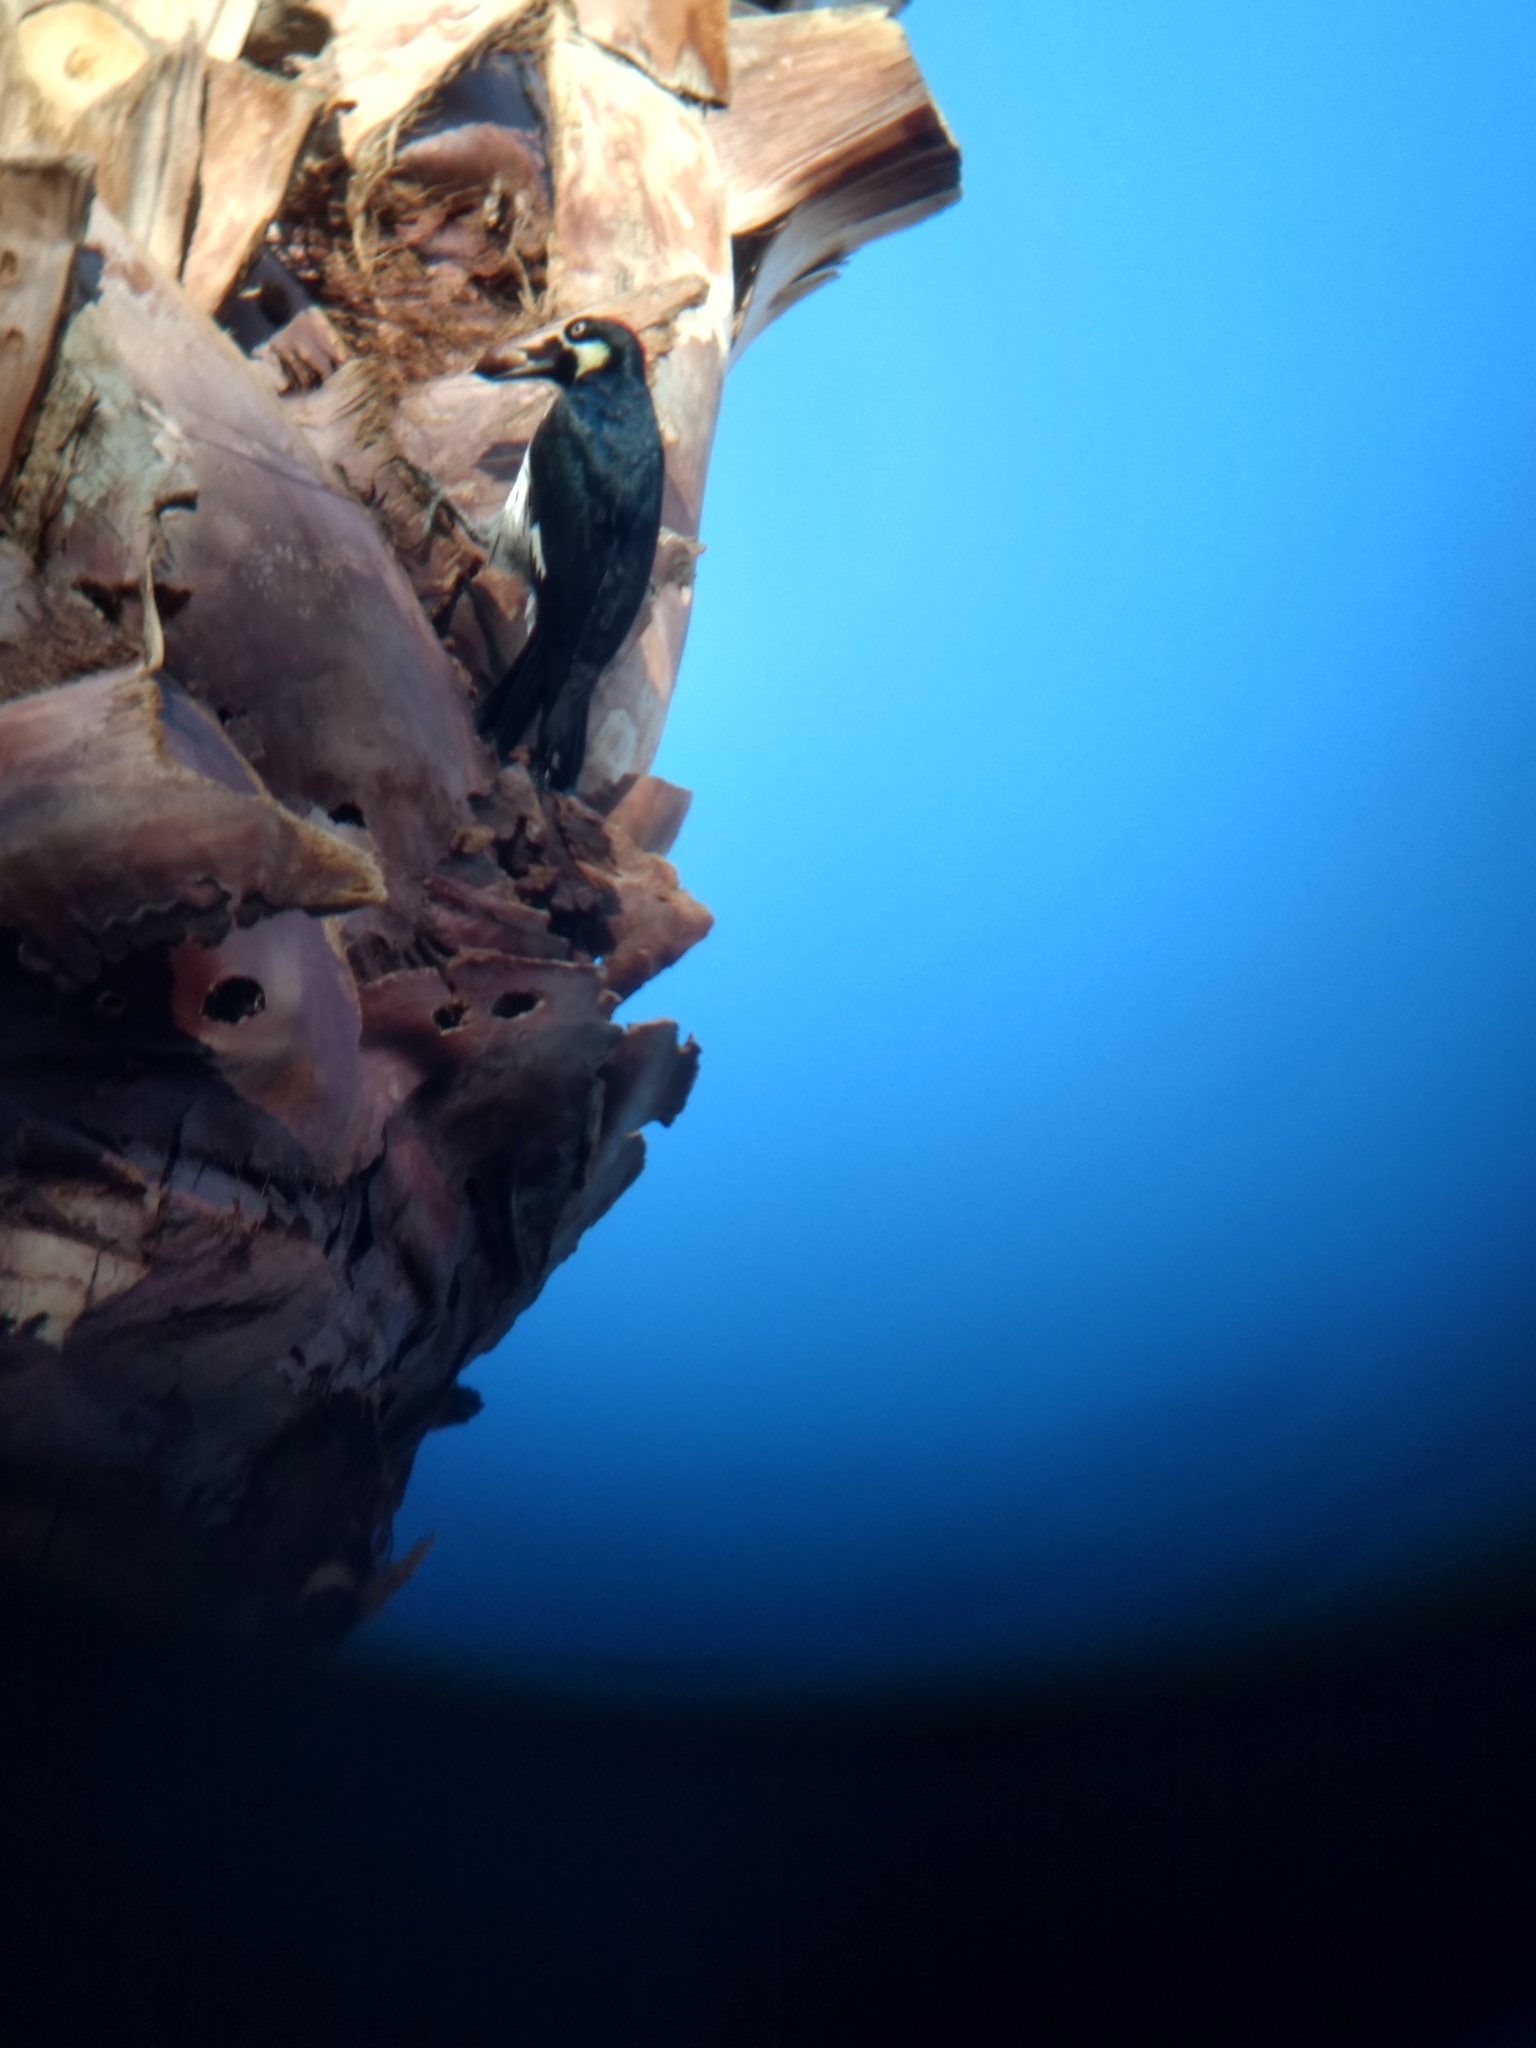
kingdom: Animalia
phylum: Chordata
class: Aves
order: Piciformes
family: Picidae
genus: Melanerpes
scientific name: Melanerpes formicivorus
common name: Acorn woodpecker
